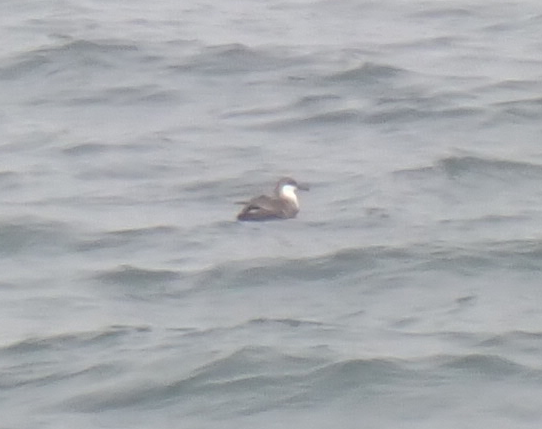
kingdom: Animalia
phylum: Chordata
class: Aves
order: Procellariiformes
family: Procellariidae
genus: Puffinus
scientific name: Puffinus gravis
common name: Great shearwater
